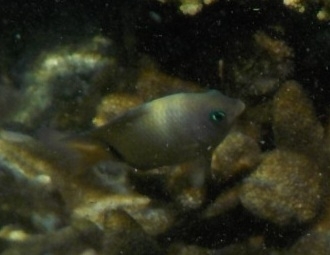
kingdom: Animalia
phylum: Chordata
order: Perciformes
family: Pomacentridae
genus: Plectroglyphidodon
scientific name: Plectroglyphidodon dickii
